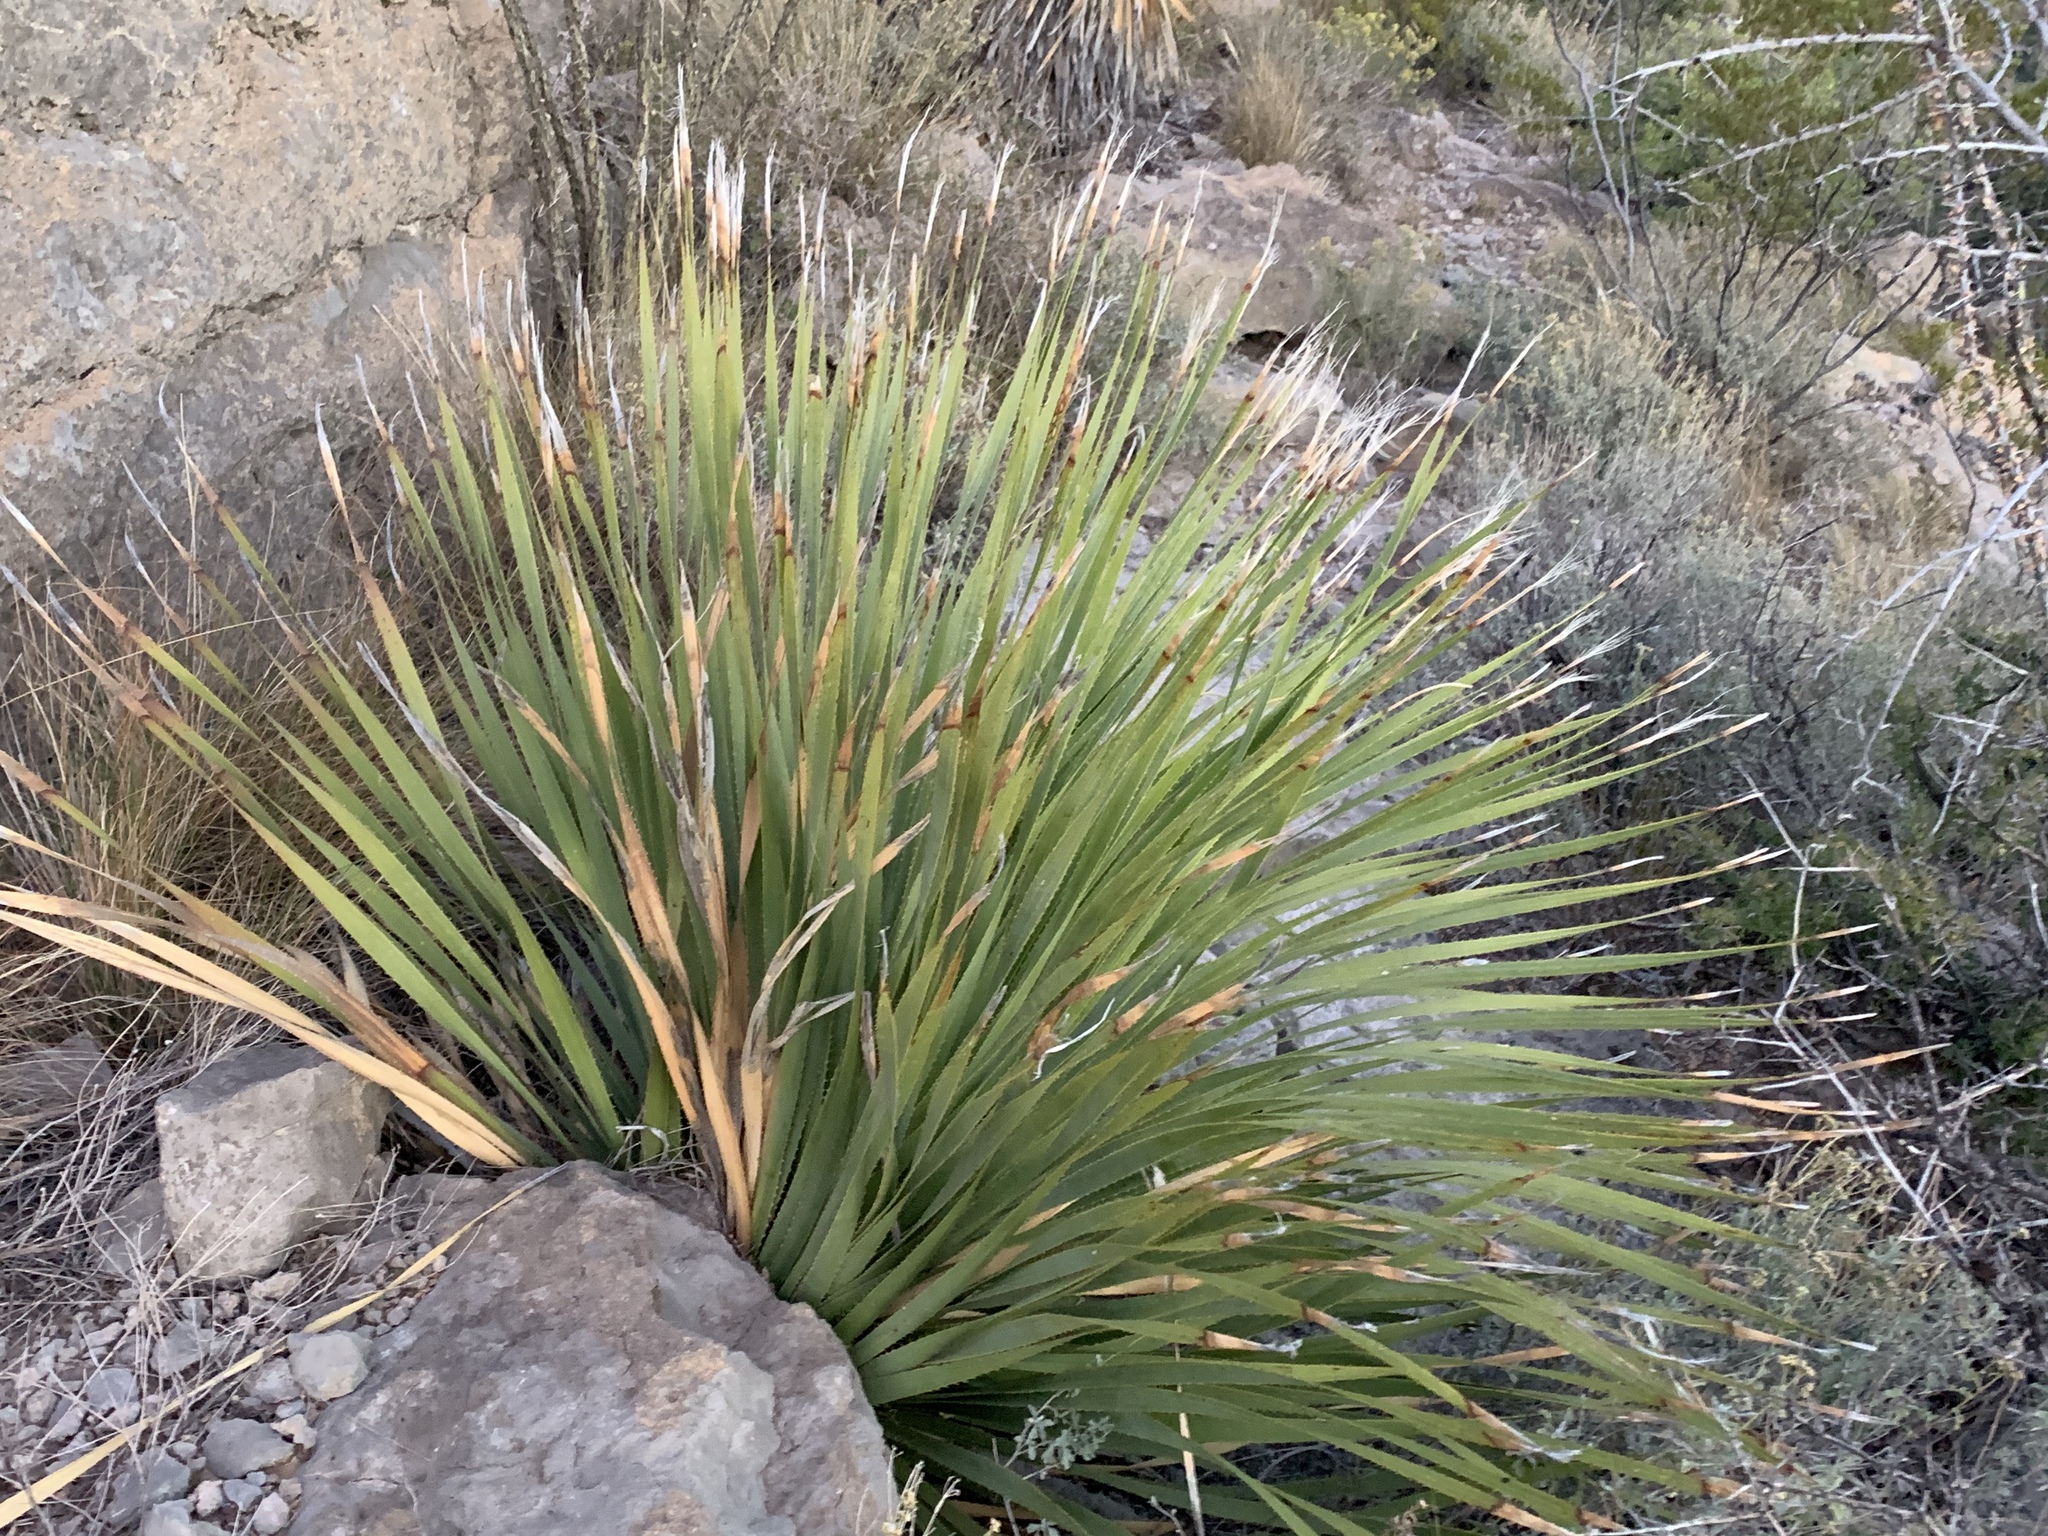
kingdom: Plantae
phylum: Tracheophyta
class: Liliopsida
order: Asparagales
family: Asparagaceae
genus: Dasylirion
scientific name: Dasylirion wheeleri
